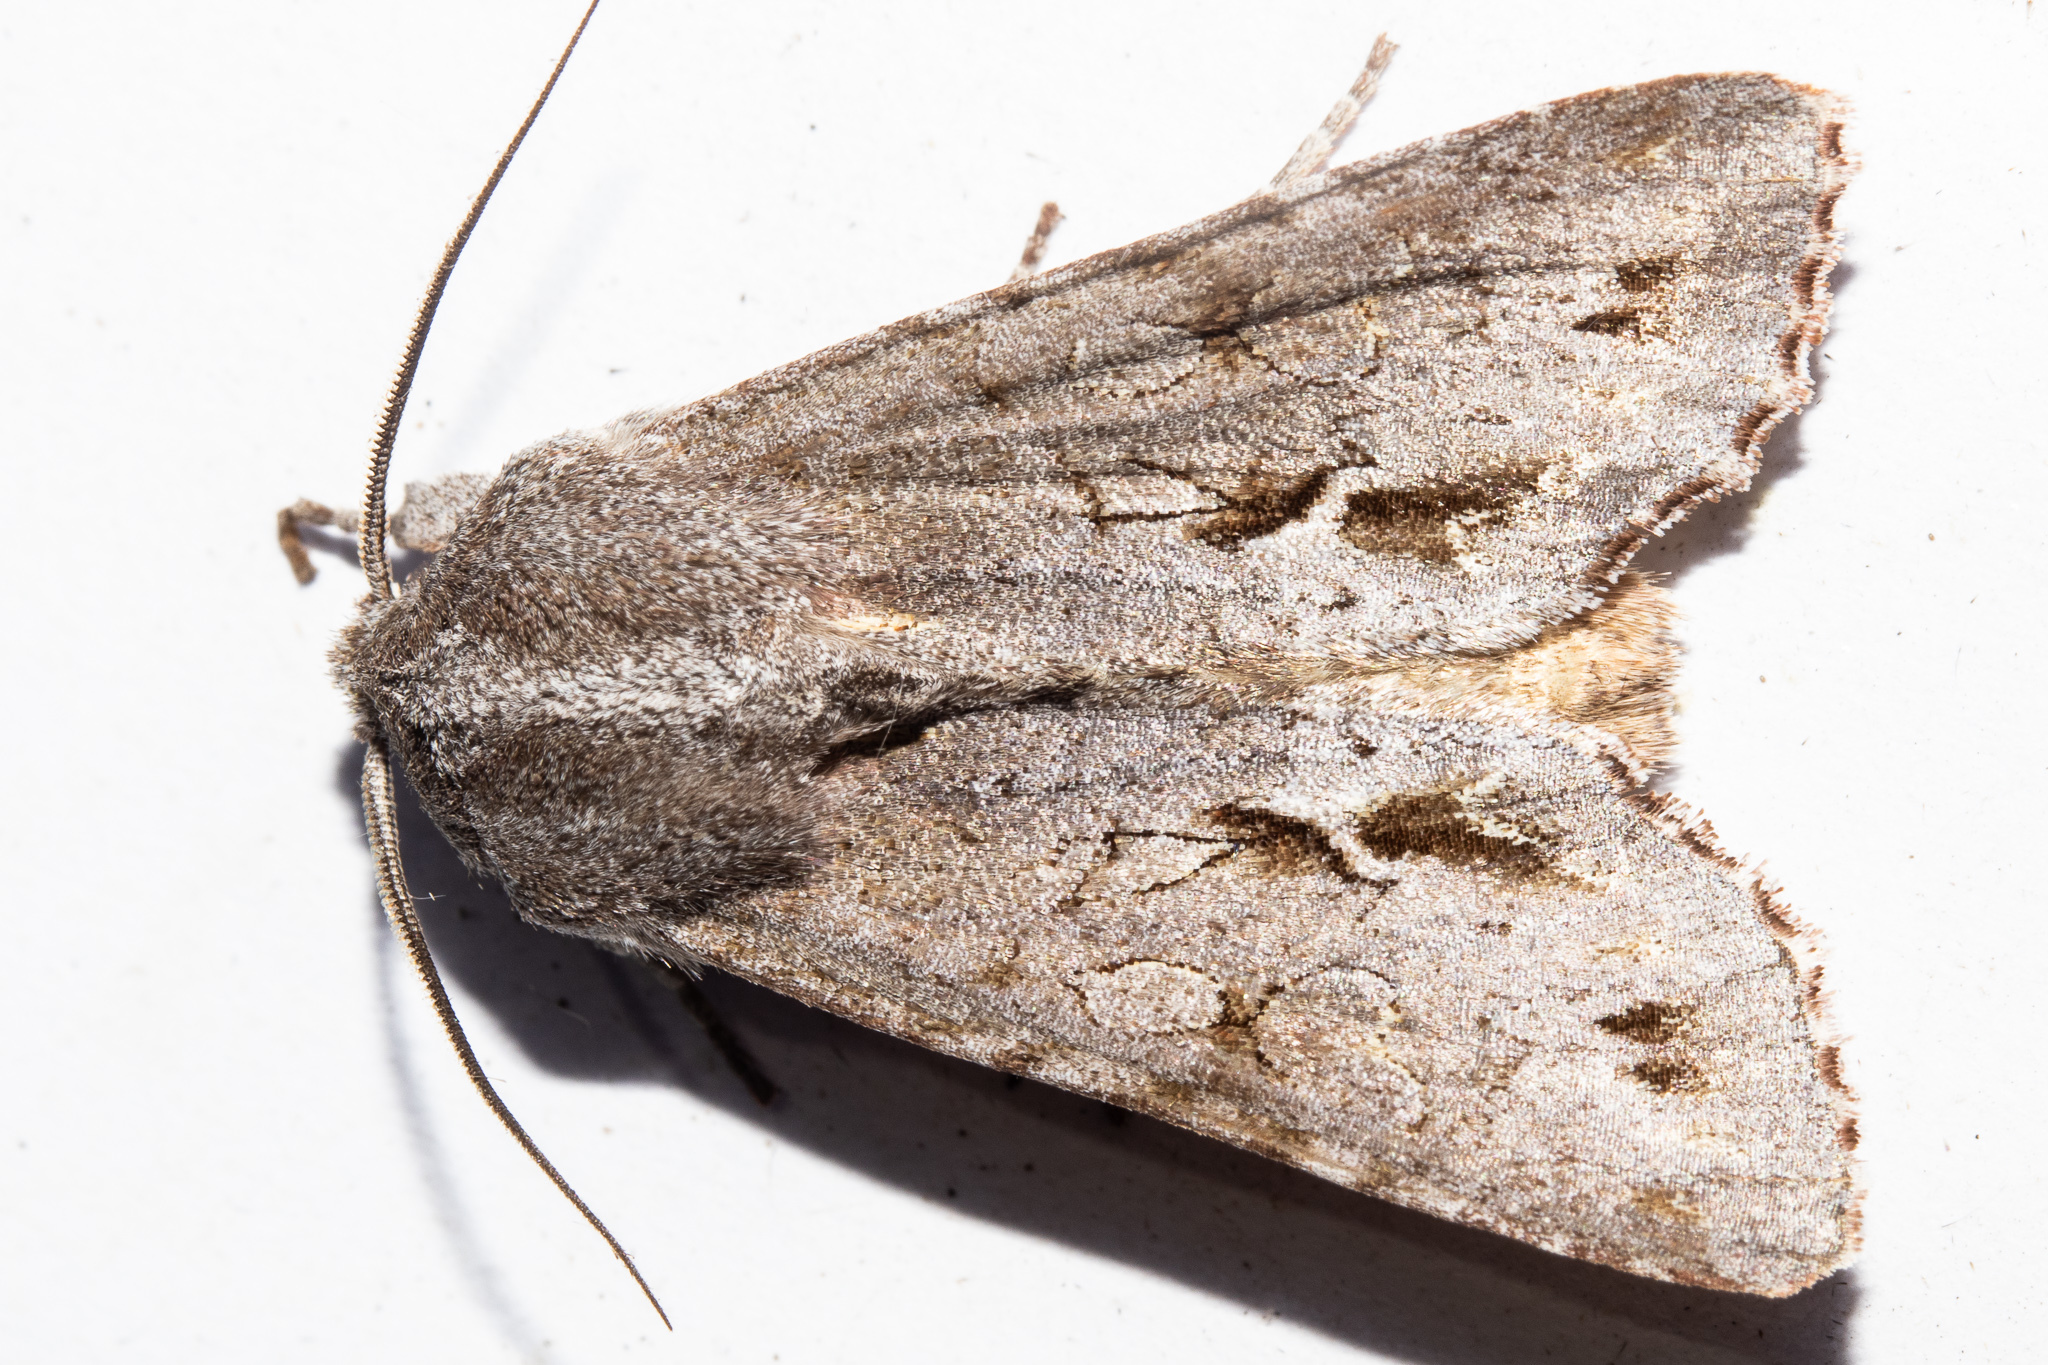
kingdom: Animalia
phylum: Arthropoda
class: Insecta
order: Lepidoptera
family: Noctuidae
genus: Ichneutica
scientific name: Ichneutica
